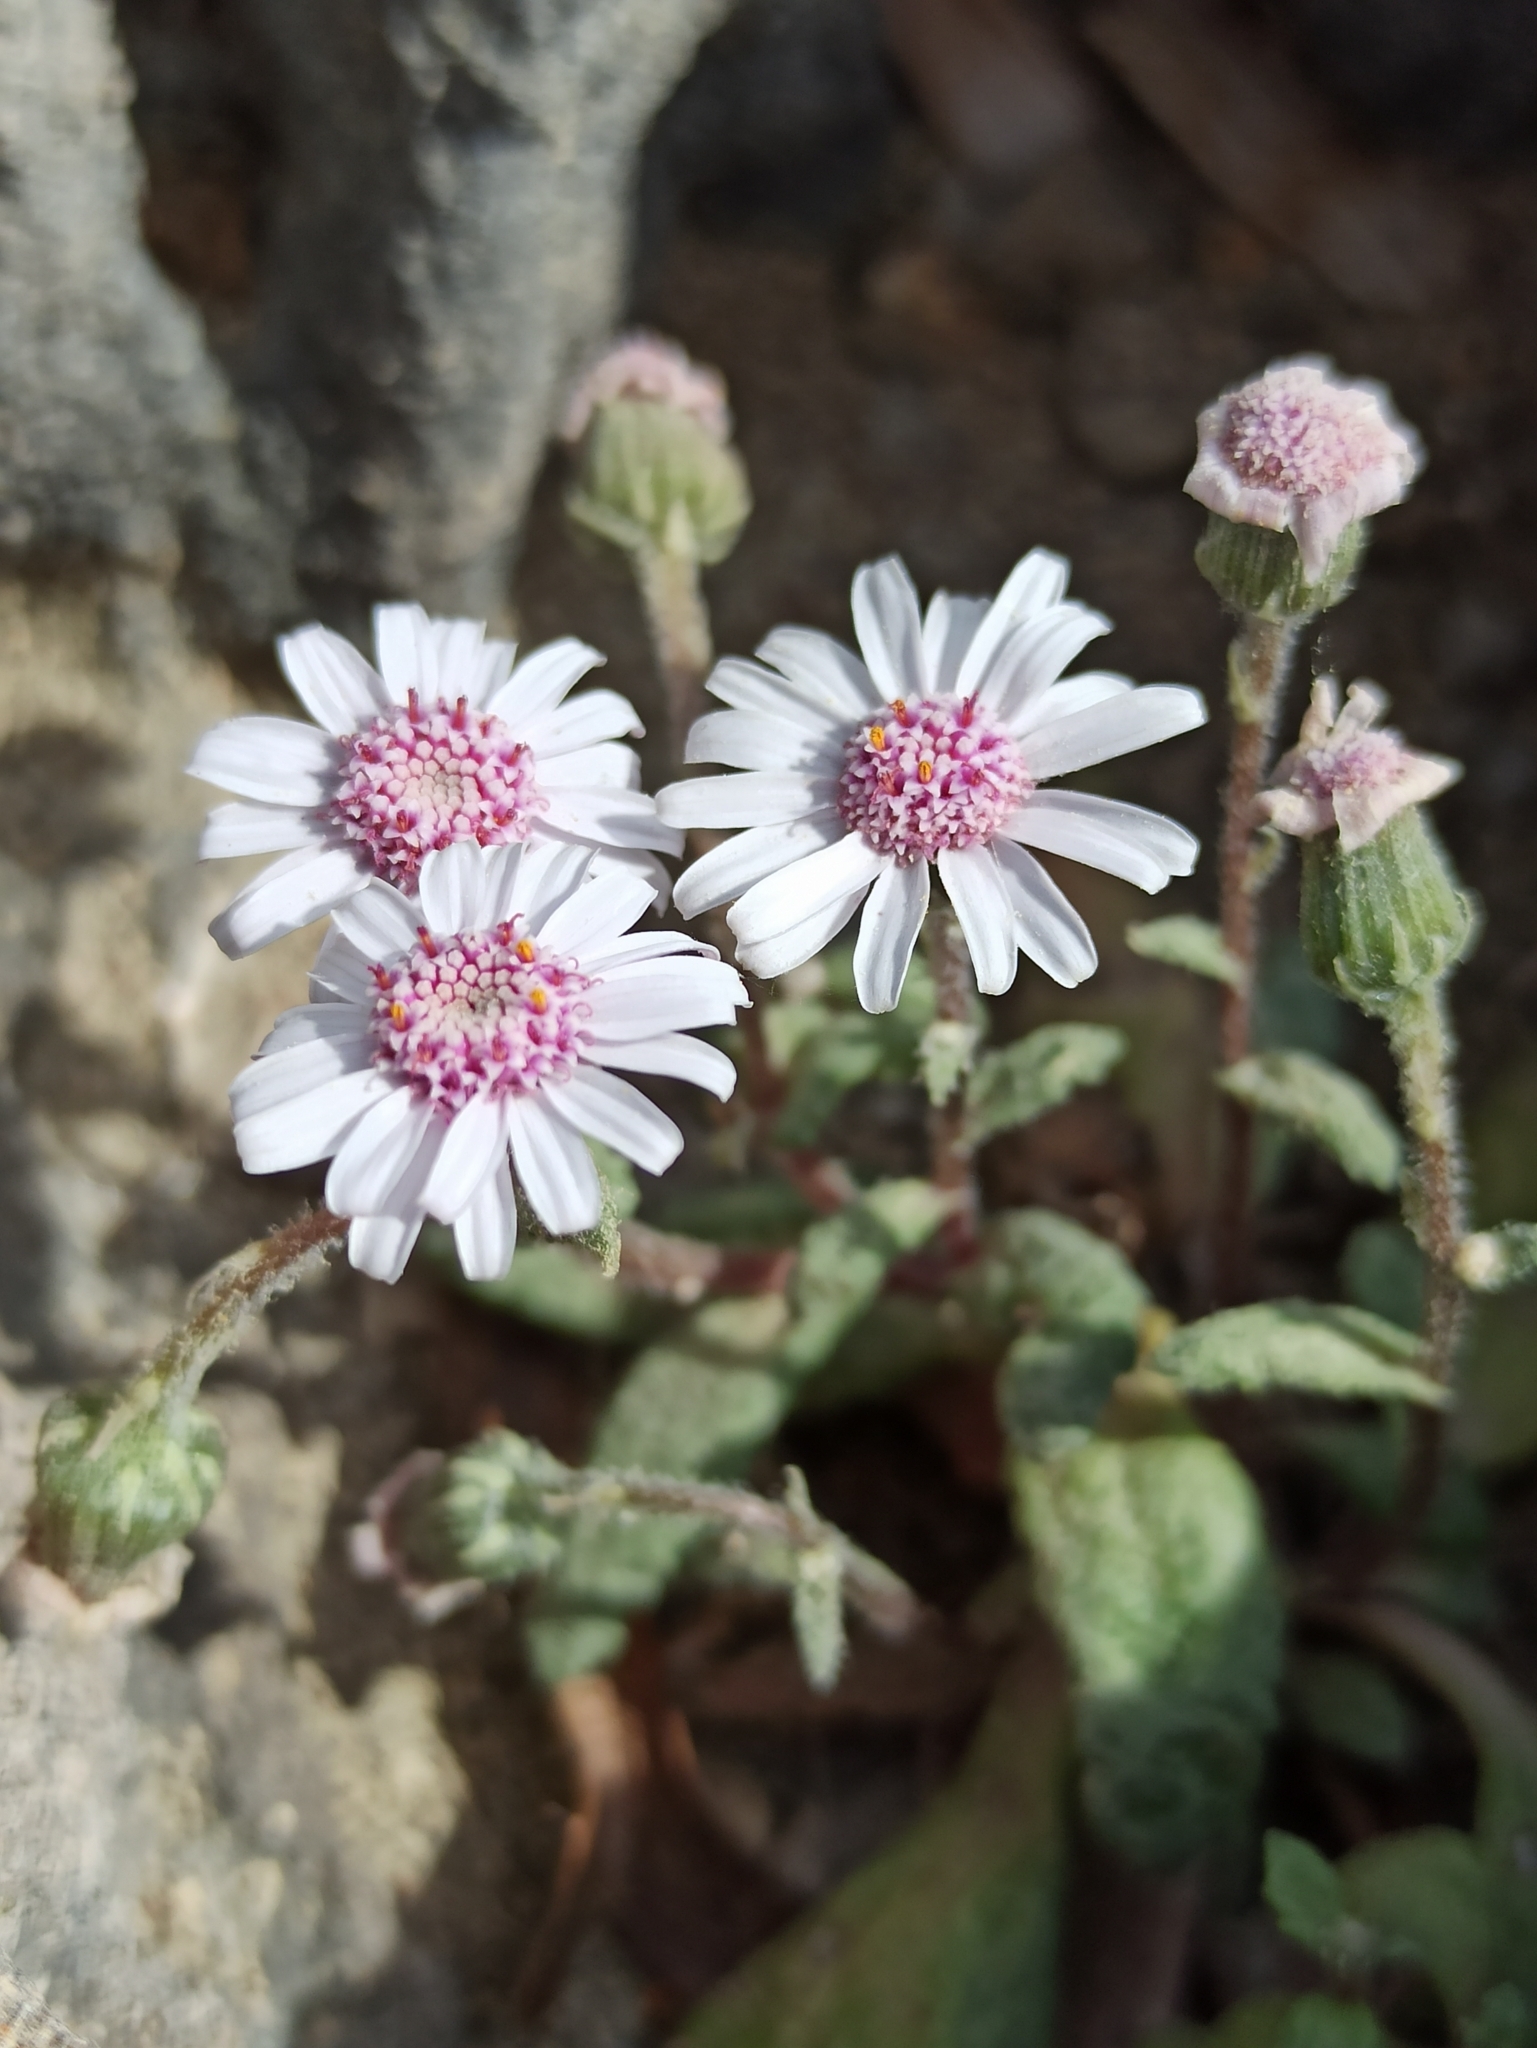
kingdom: Plantae
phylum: Tracheophyta
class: Magnoliopsida
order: Asterales
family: Asteraceae
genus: Senecio
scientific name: Senecio varicosus
